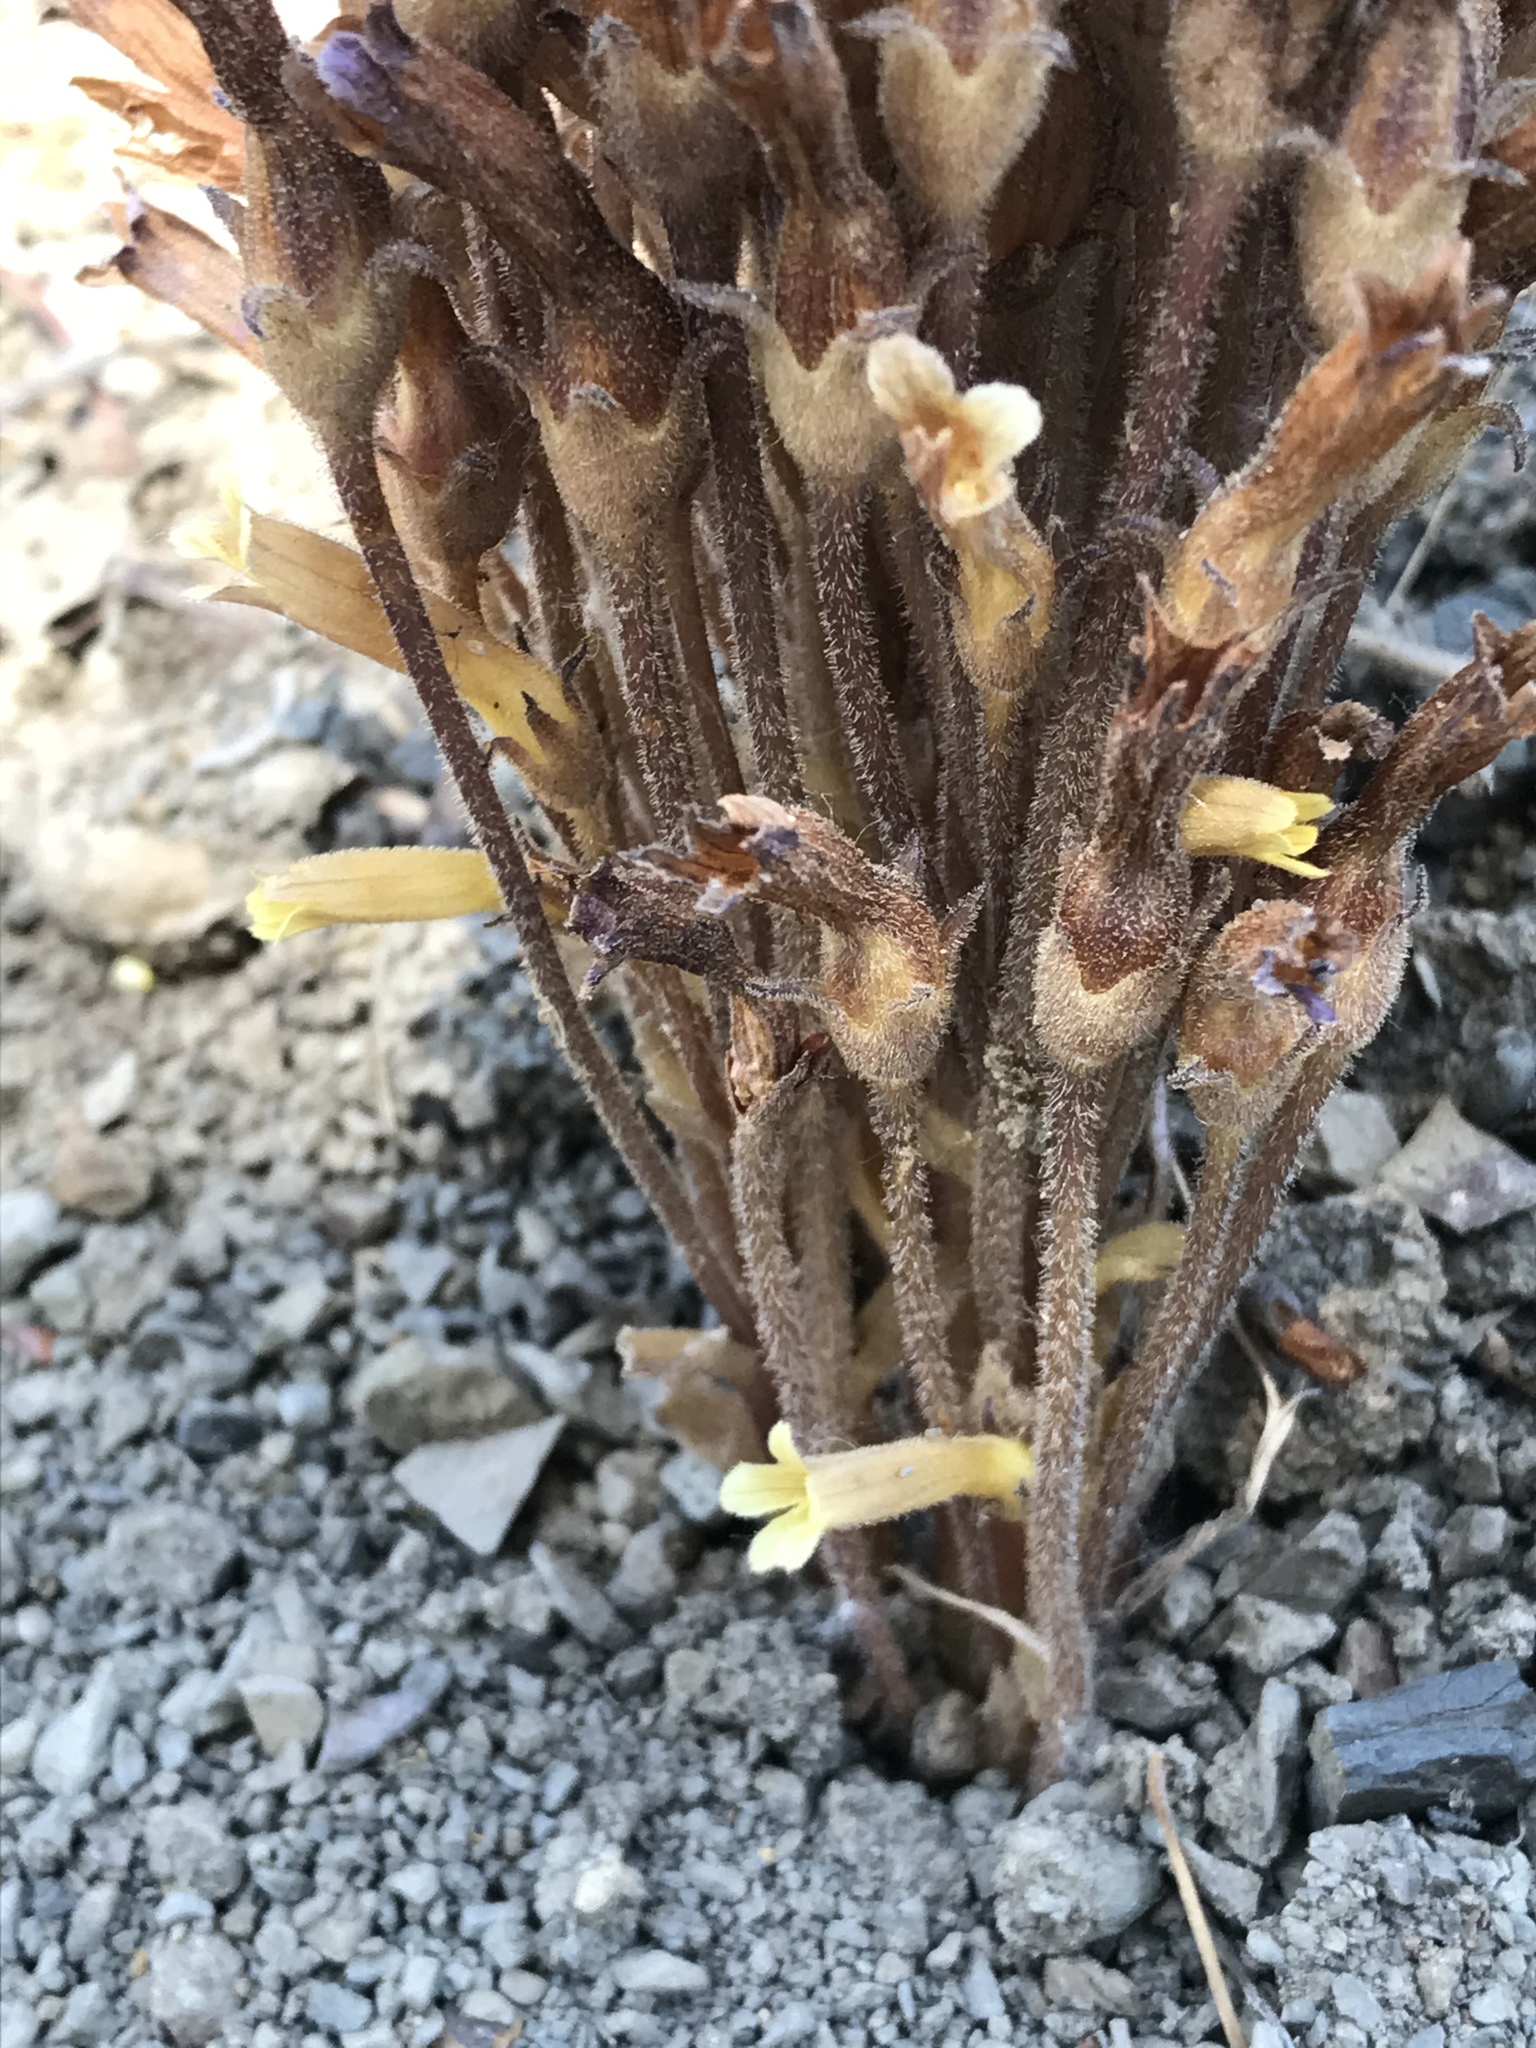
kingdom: Plantae
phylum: Tracheophyta
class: Magnoliopsida
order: Lamiales
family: Orobanchaceae
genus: Aphyllon
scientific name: Aphyllon franciscanum
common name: San francisco broomrape
